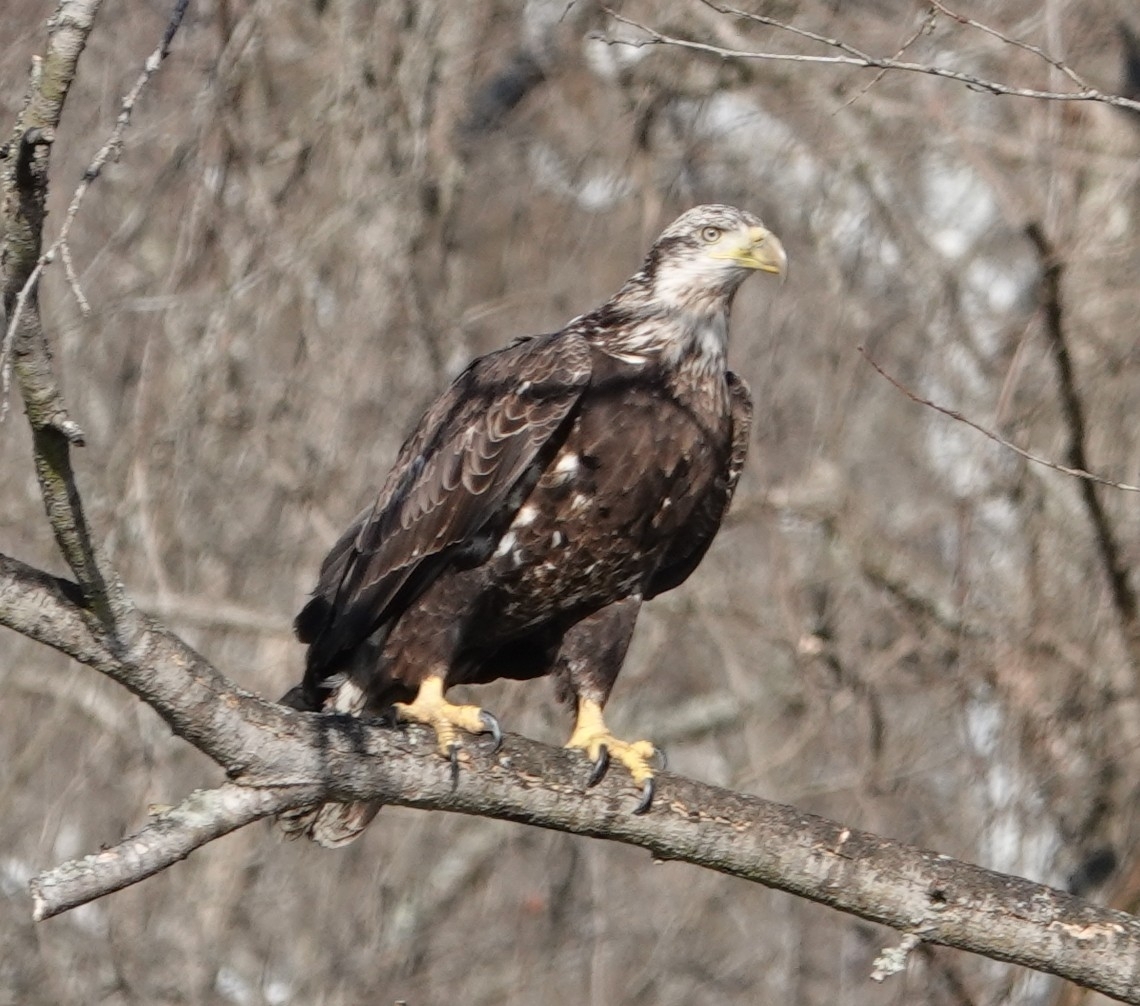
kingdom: Animalia
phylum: Chordata
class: Aves
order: Accipitriformes
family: Accipitridae
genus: Haliaeetus
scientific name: Haliaeetus leucocephalus
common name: Bald eagle
